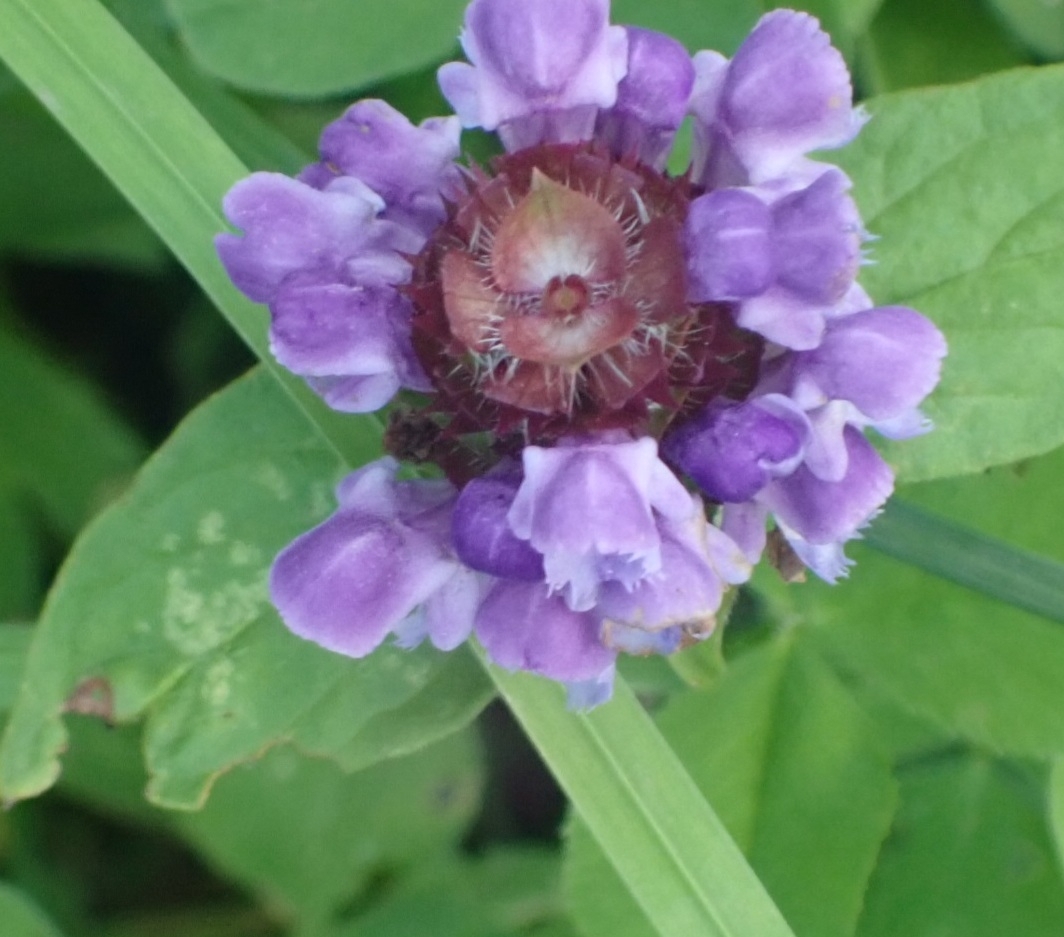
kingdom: Plantae
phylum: Tracheophyta
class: Magnoliopsida
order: Lamiales
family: Lamiaceae
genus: Prunella
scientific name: Prunella vulgaris
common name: Heal-all
